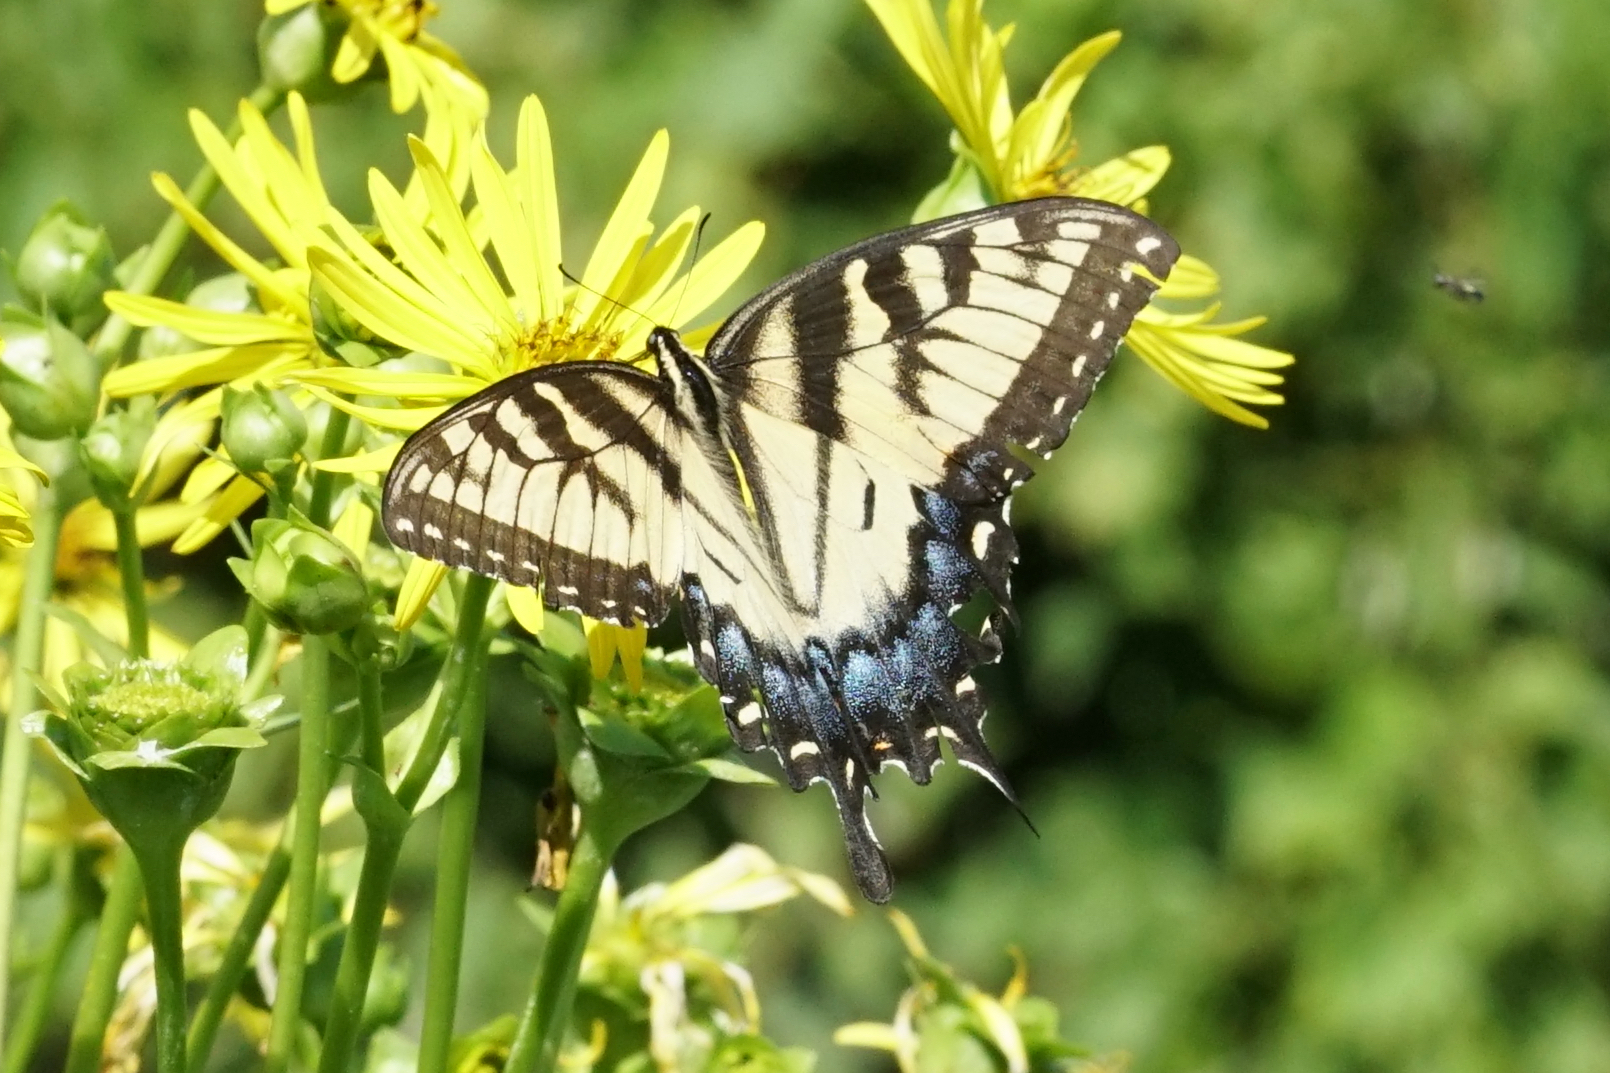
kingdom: Animalia
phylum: Arthropoda
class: Insecta
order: Lepidoptera
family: Papilionidae
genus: Papilio
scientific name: Papilio glaucus
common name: Tiger swallowtail
